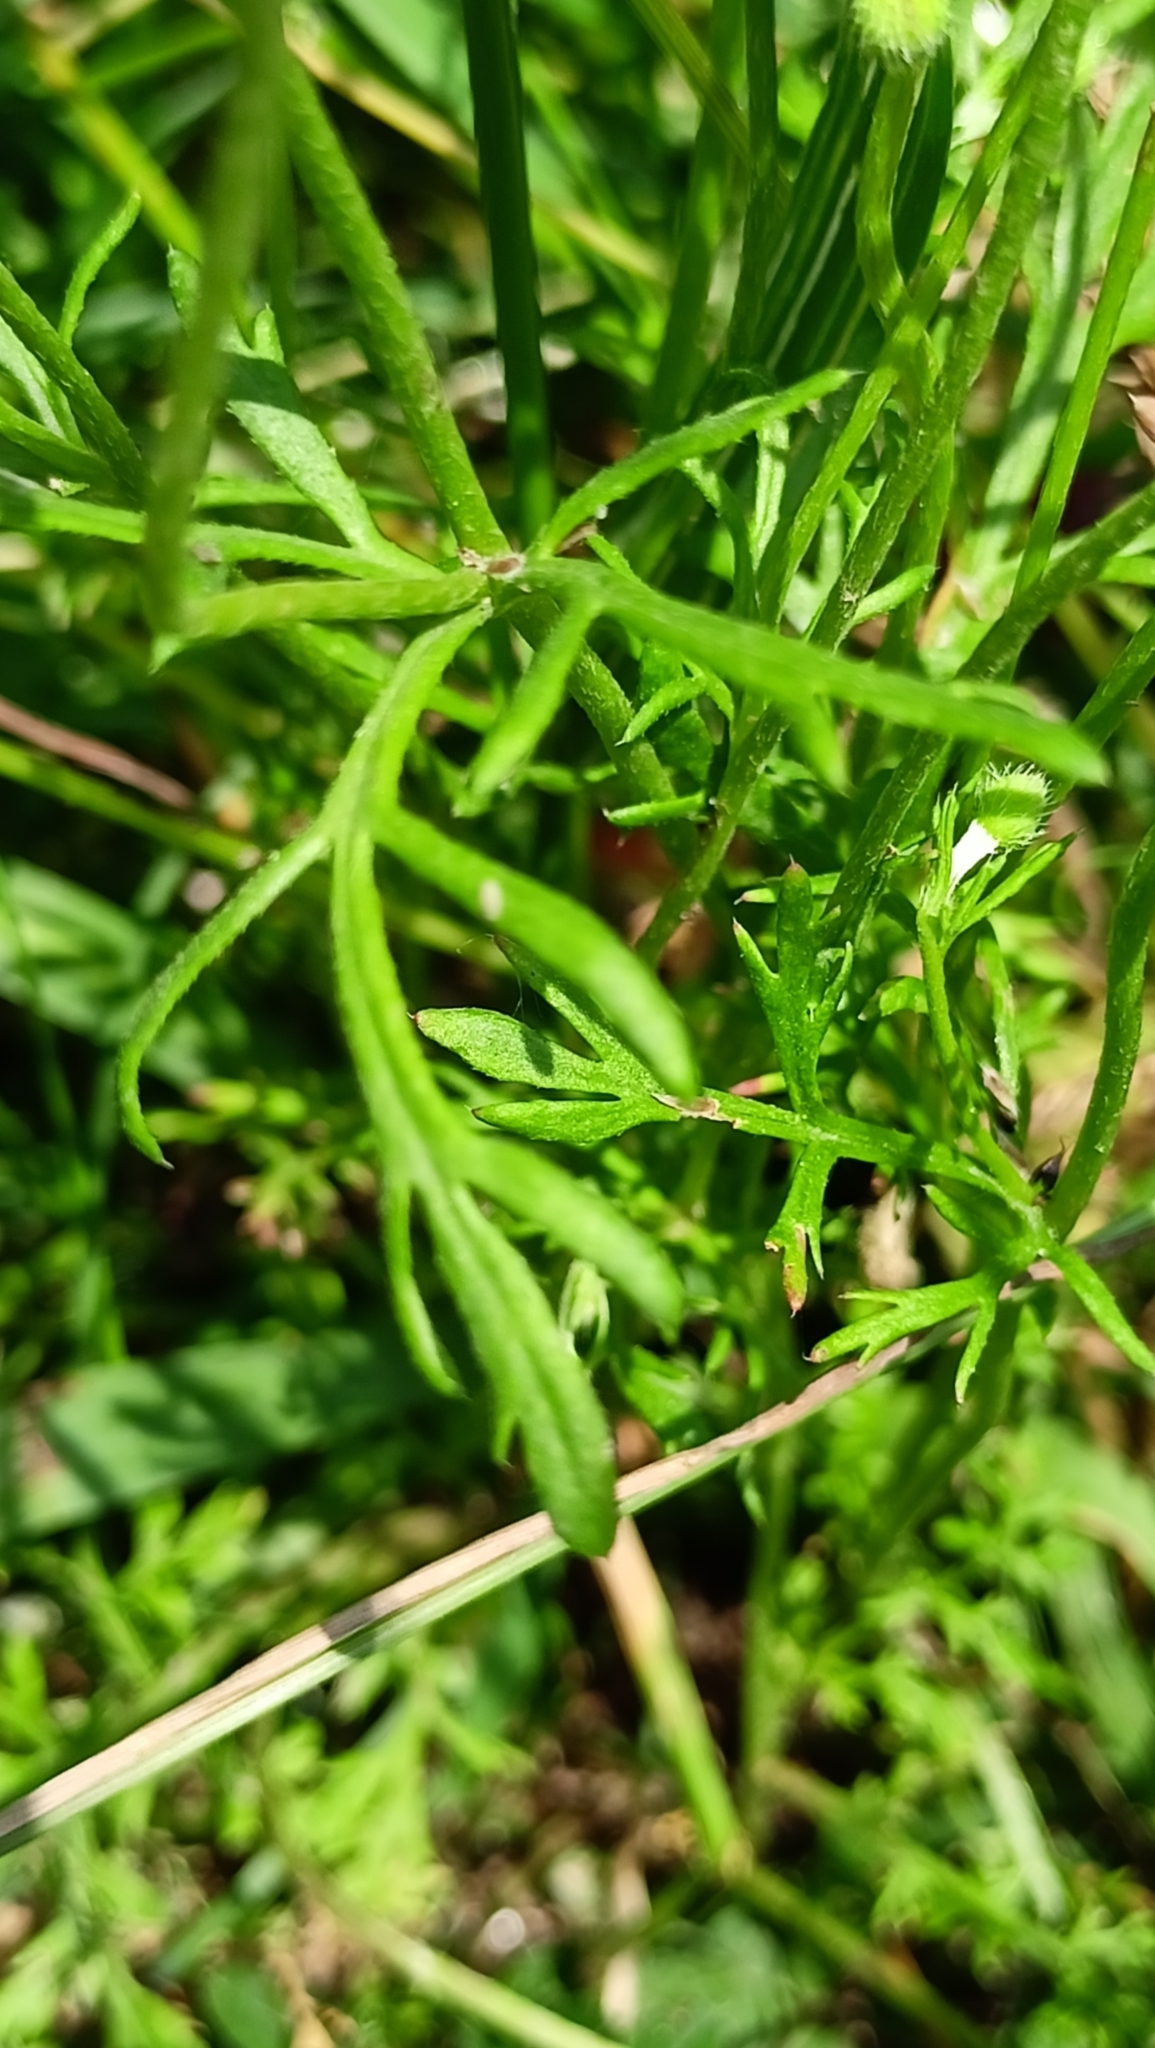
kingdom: Plantae
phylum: Tracheophyta
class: Magnoliopsida
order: Ranunculales
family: Papaveraceae
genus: Roemeria
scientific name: Roemeria apula
